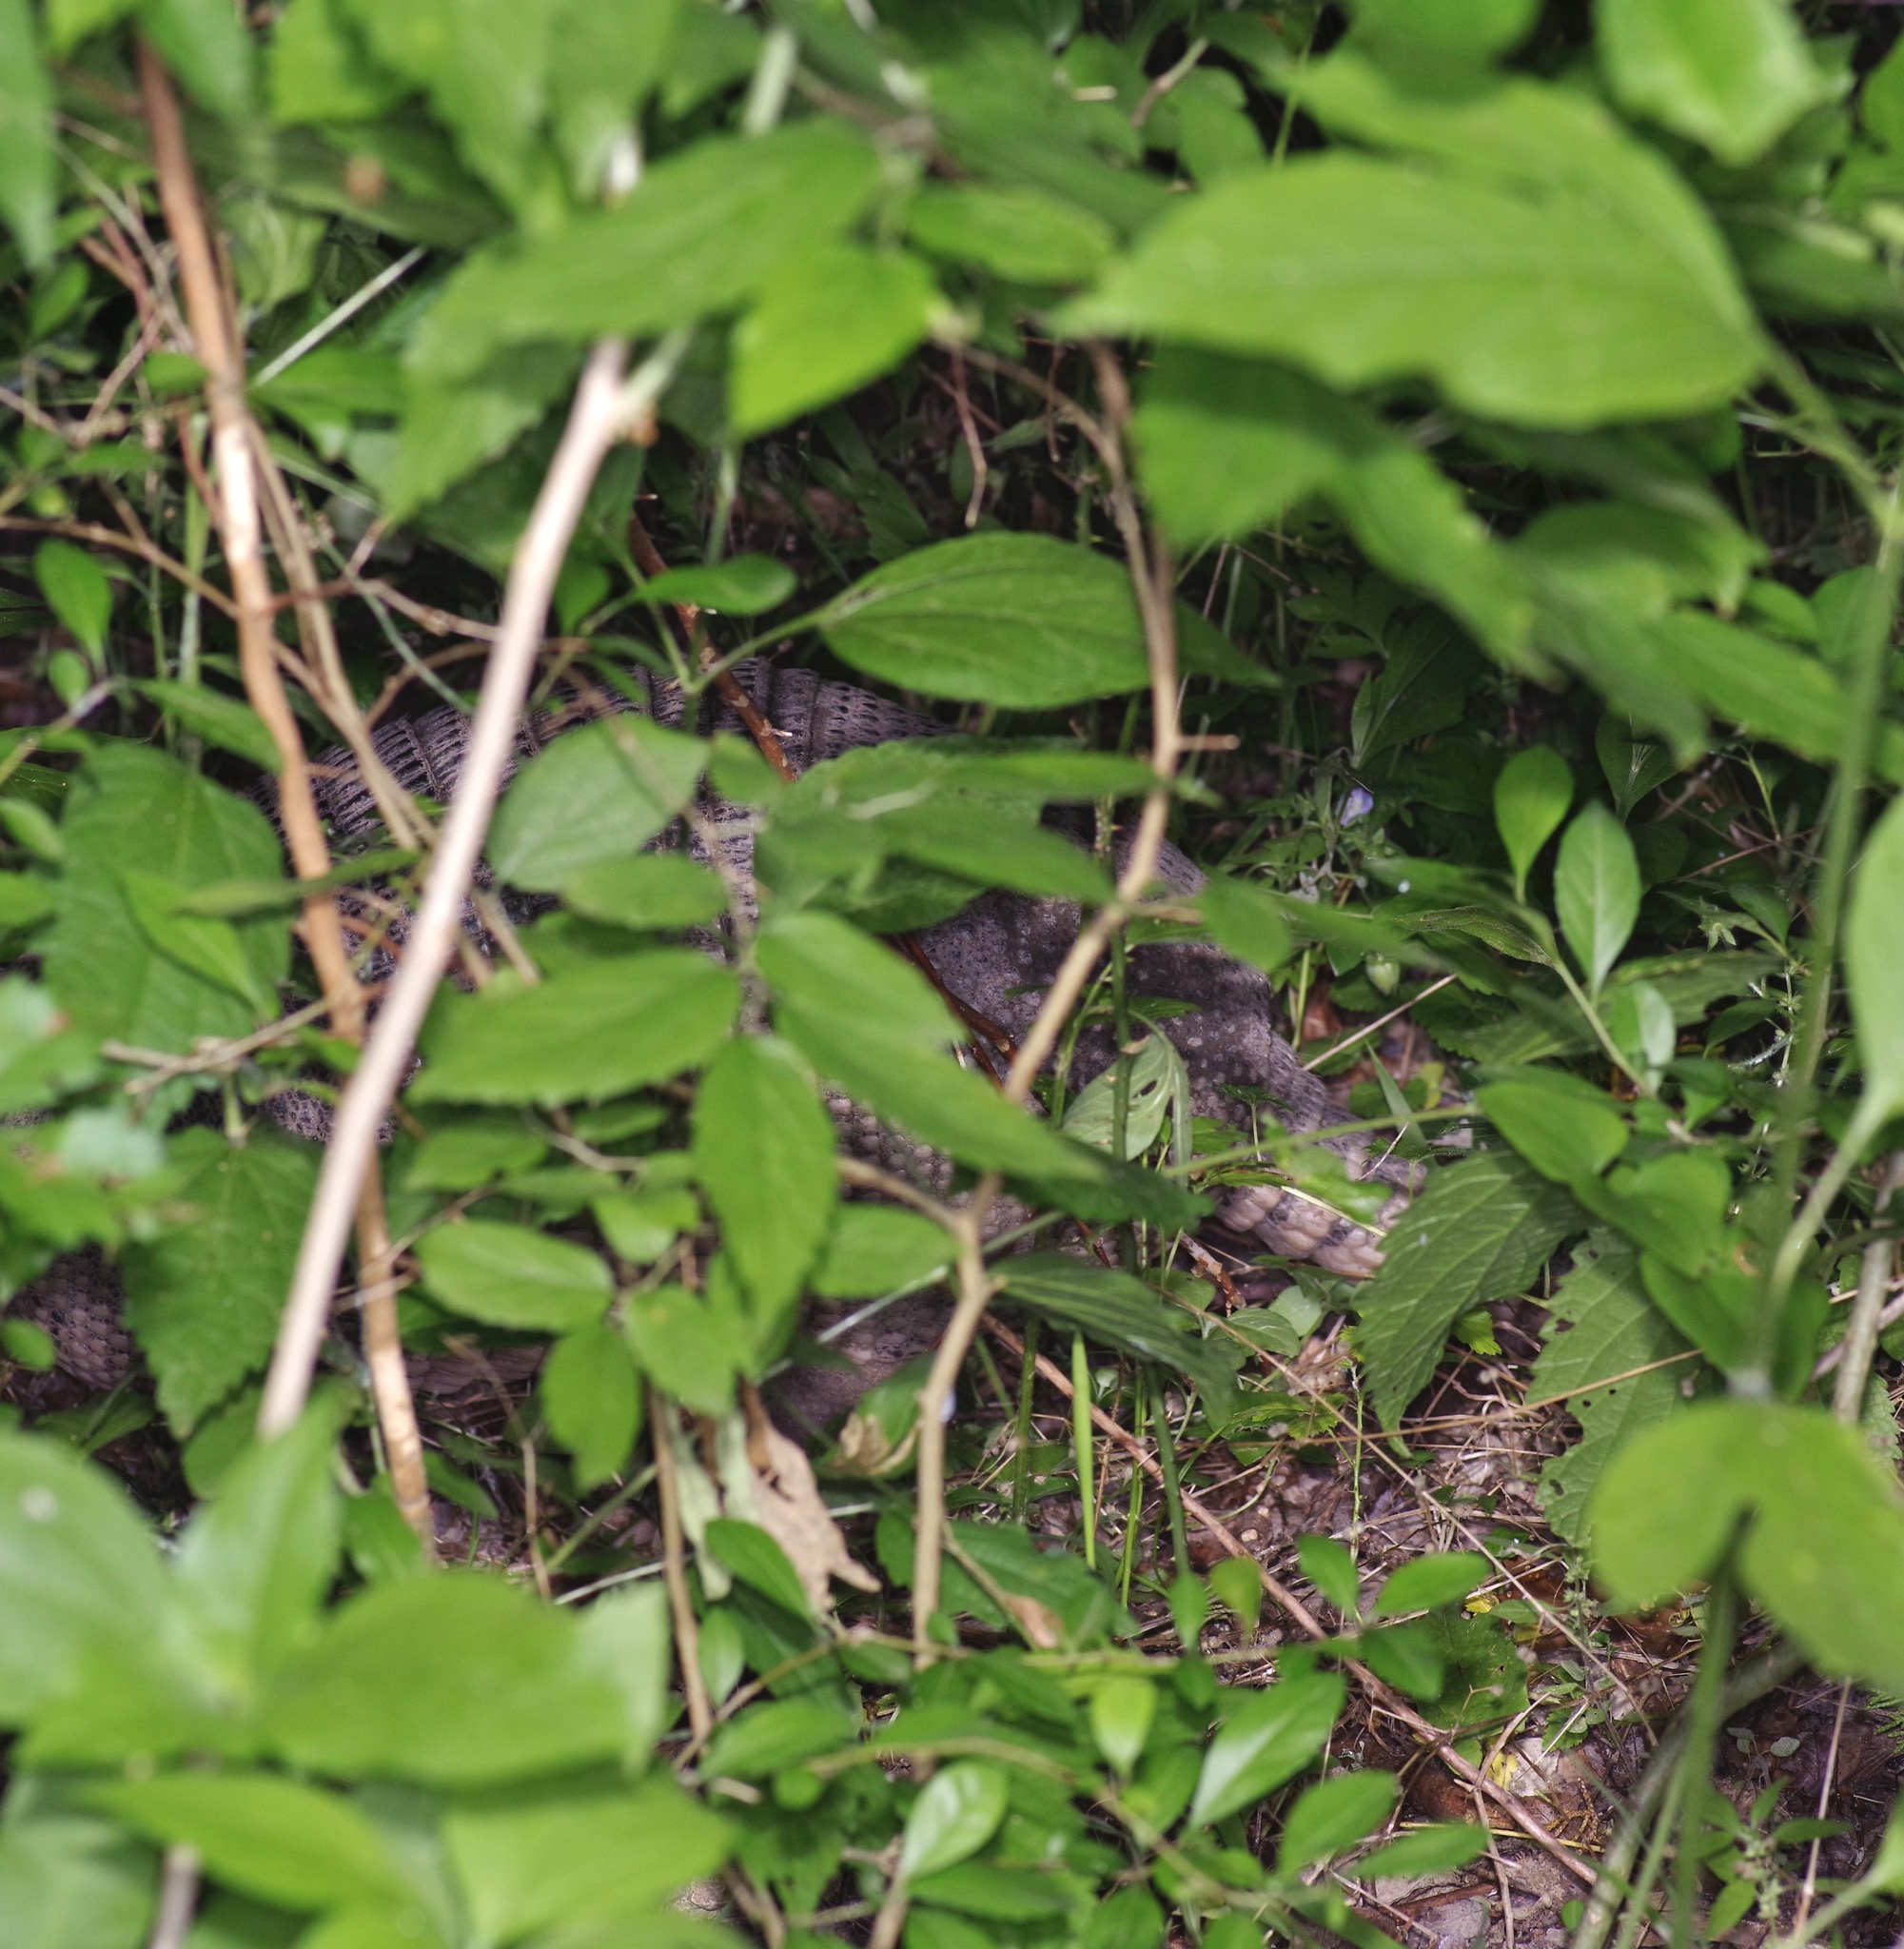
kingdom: Animalia
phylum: Chordata
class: Mammalia
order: Cingulata
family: Dasypodidae
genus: Dasypus
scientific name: Dasypus novemcinctus
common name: Nine-banded armadillo
